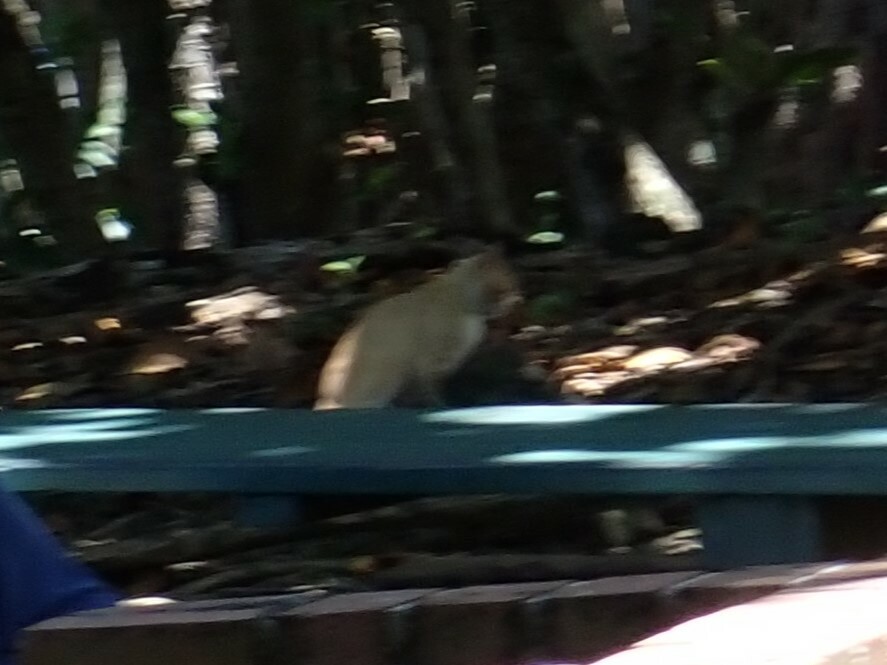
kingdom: Animalia
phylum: Chordata
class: Mammalia
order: Carnivora
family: Felidae
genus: Felis
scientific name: Felis catus
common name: Domestic cat
